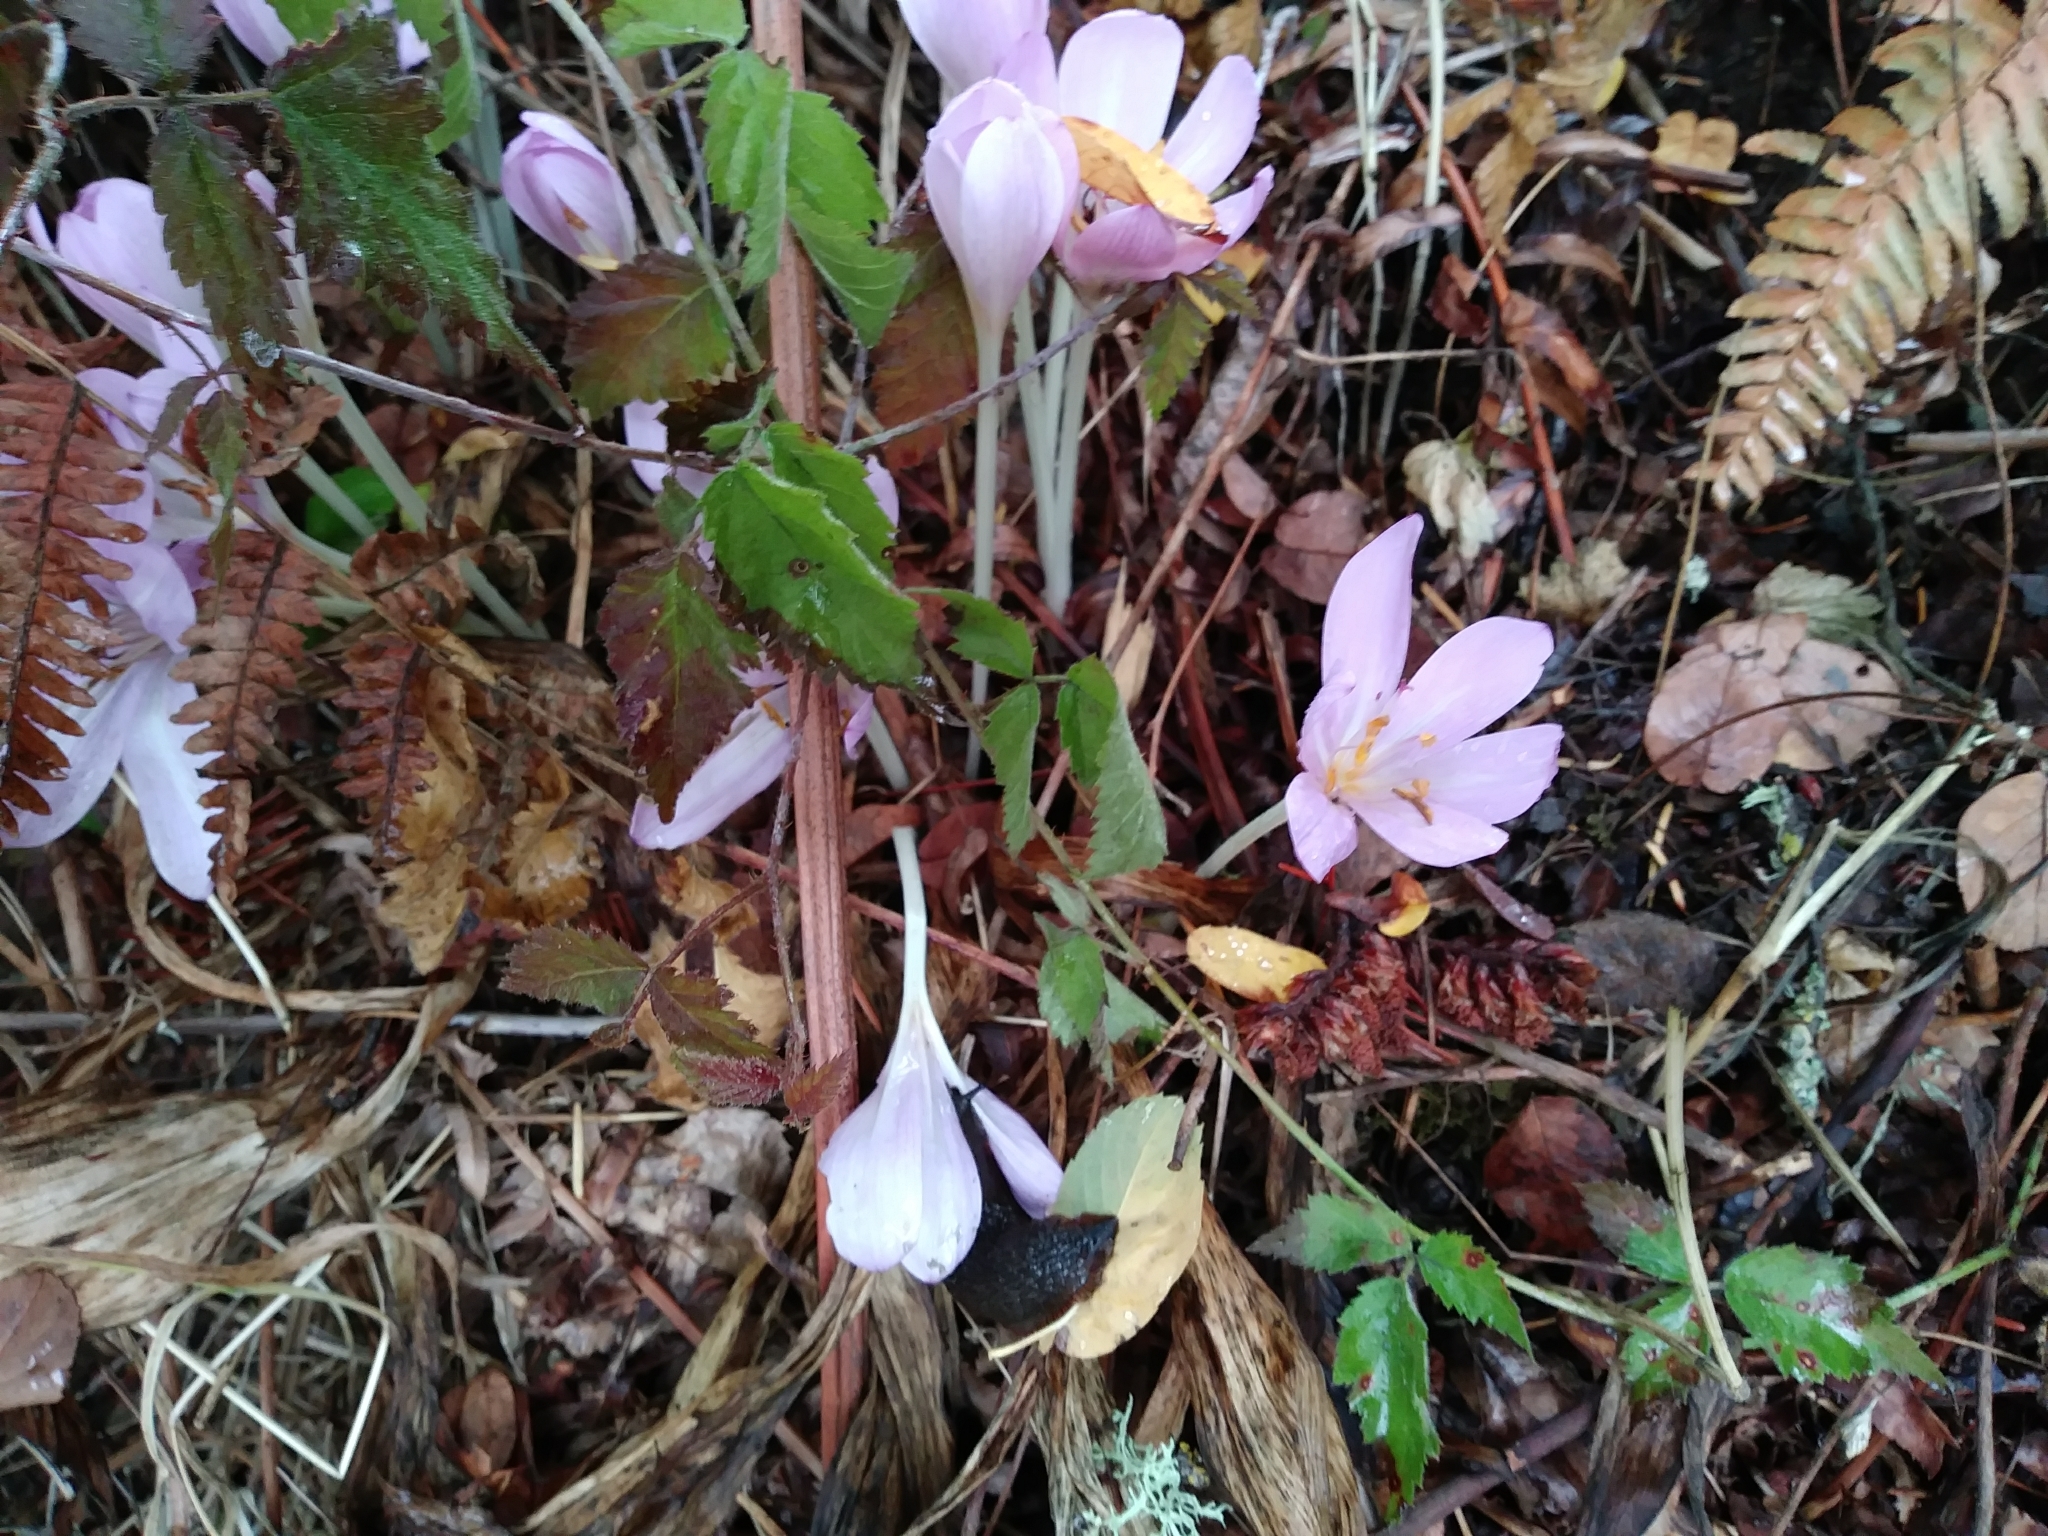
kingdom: Plantae
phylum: Tracheophyta
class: Liliopsida
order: Liliales
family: Colchicaceae
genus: Colchicum
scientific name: Colchicum autumnale
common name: Autumn crocus
